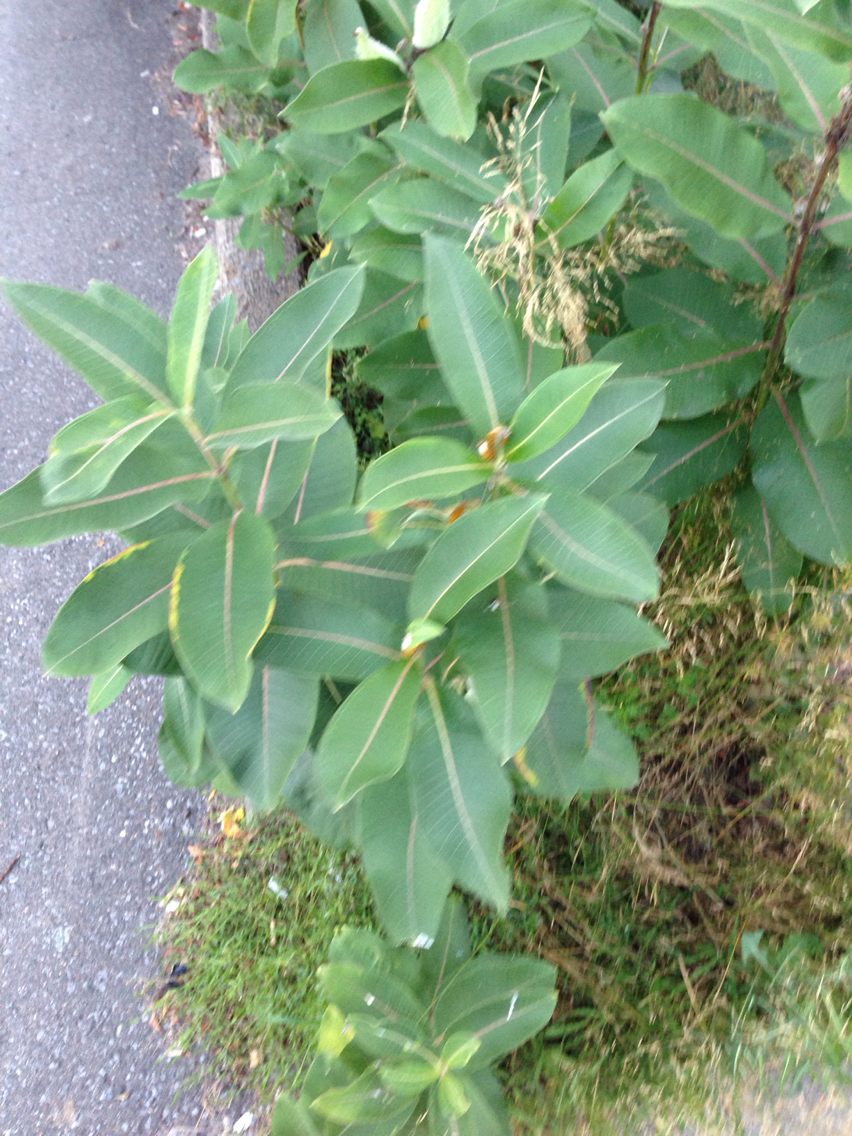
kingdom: Plantae
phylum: Tracheophyta
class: Magnoliopsida
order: Gentianales
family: Apocynaceae
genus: Asclepias
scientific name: Asclepias syriaca
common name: Common milkweed
